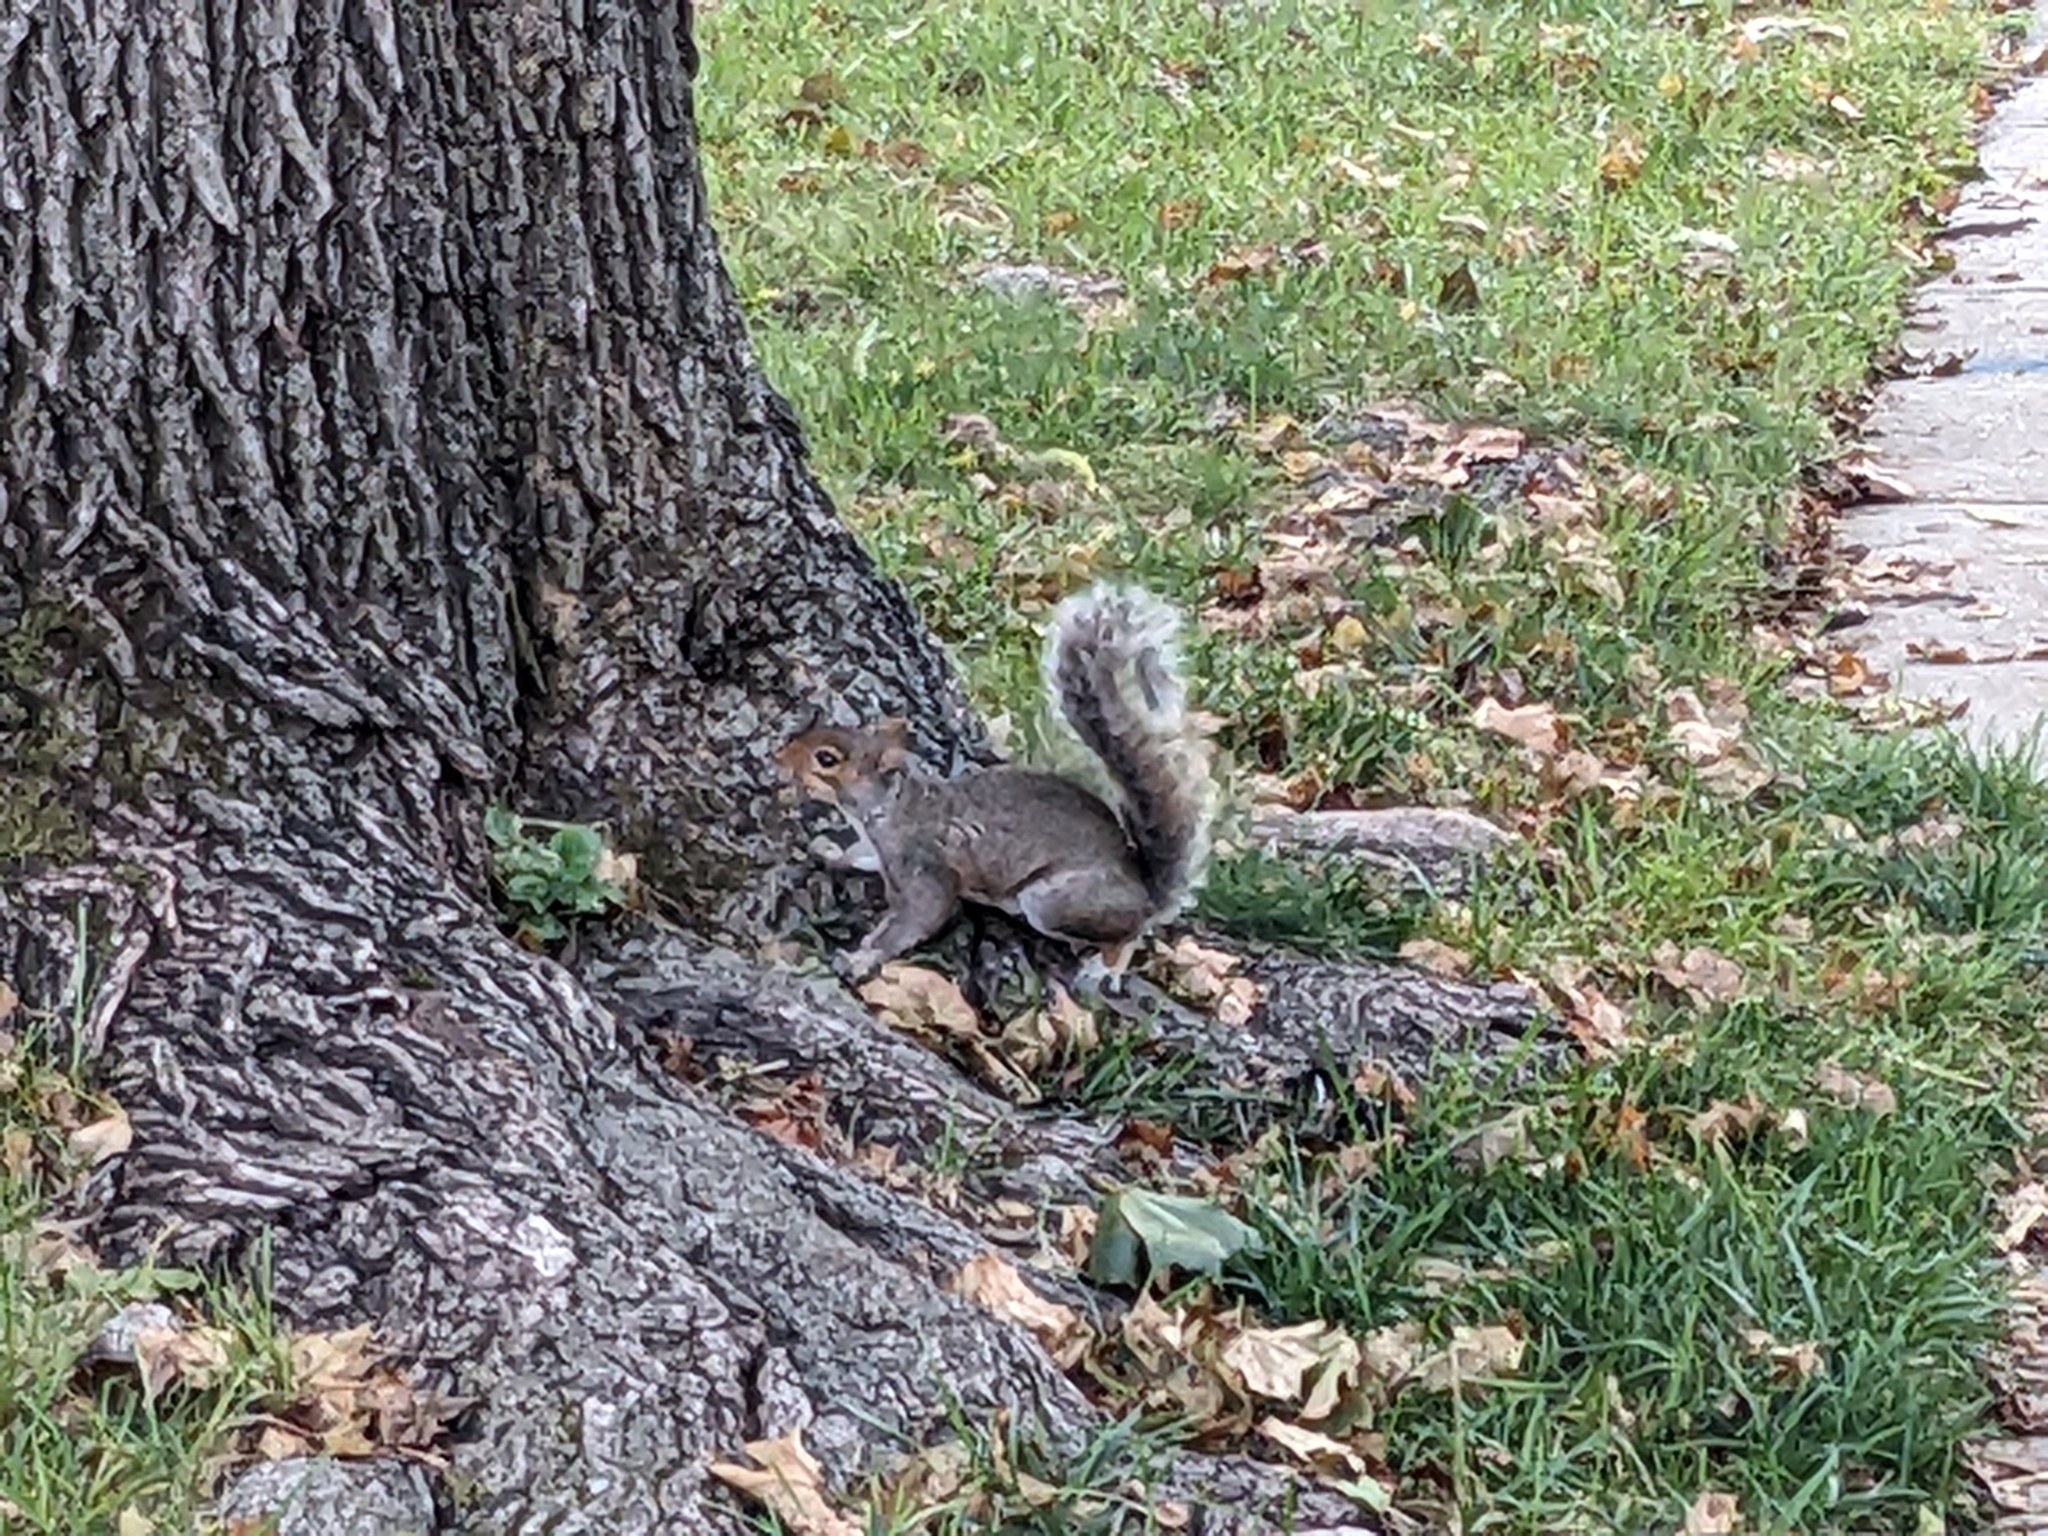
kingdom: Animalia
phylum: Chordata
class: Mammalia
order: Rodentia
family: Sciuridae
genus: Sciurus
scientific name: Sciurus carolinensis
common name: Eastern gray squirrel
